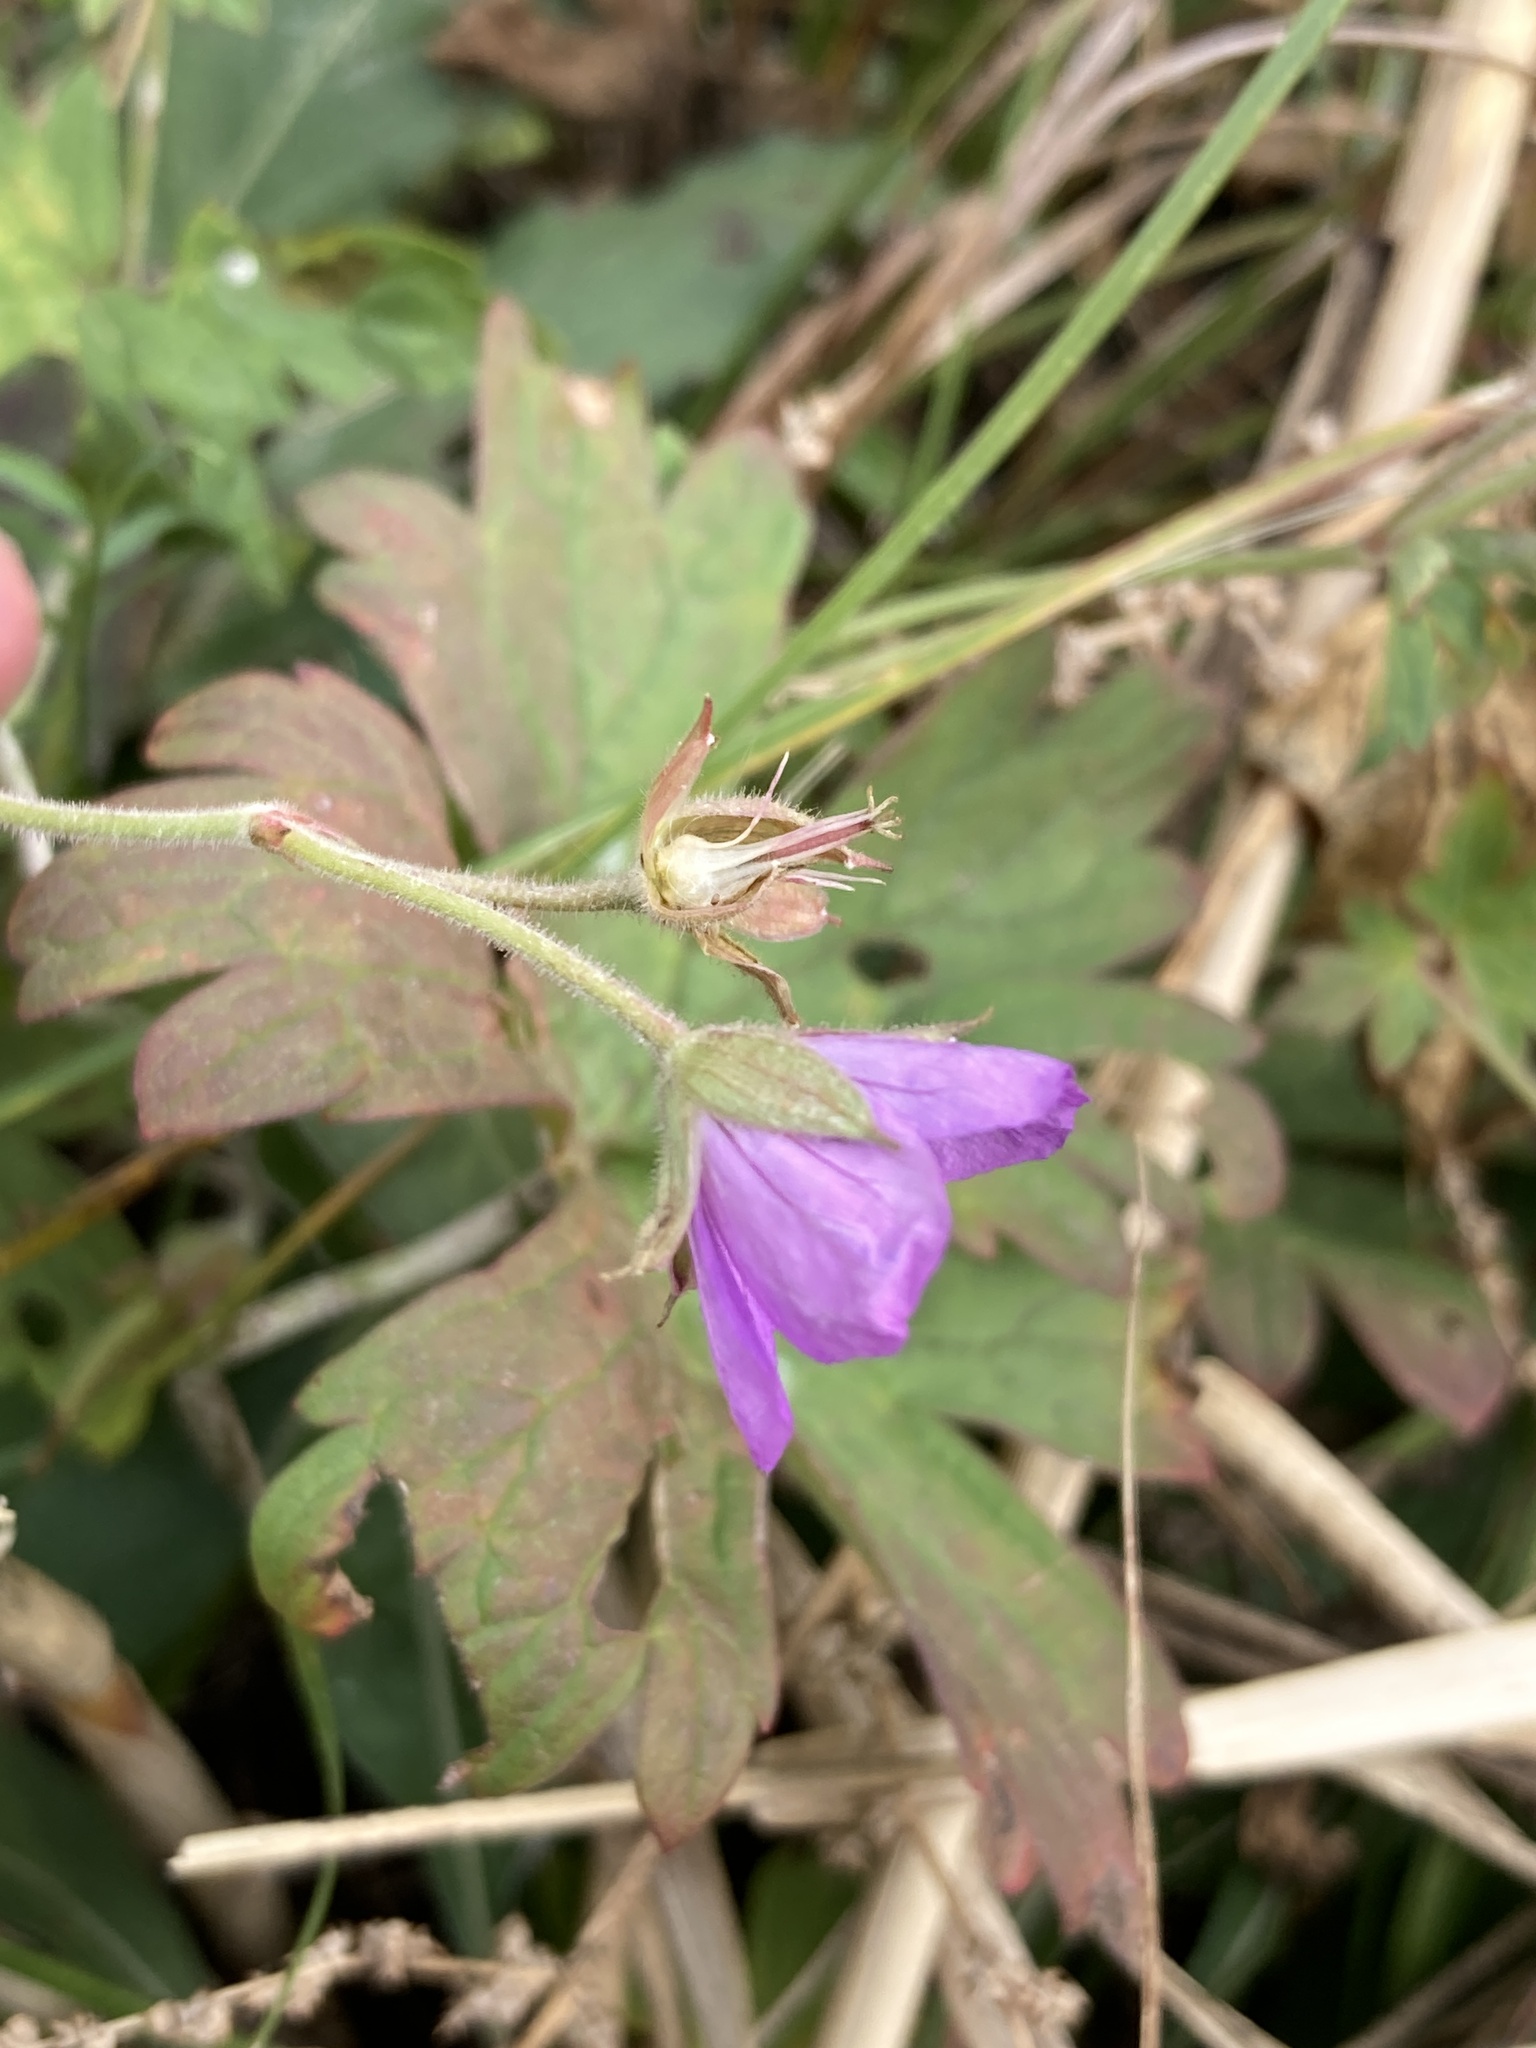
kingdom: Plantae
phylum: Tracheophyta
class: Magnoliopsida
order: Geraniales
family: Geraniaceae
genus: Geranium
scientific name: Geranium collinum
